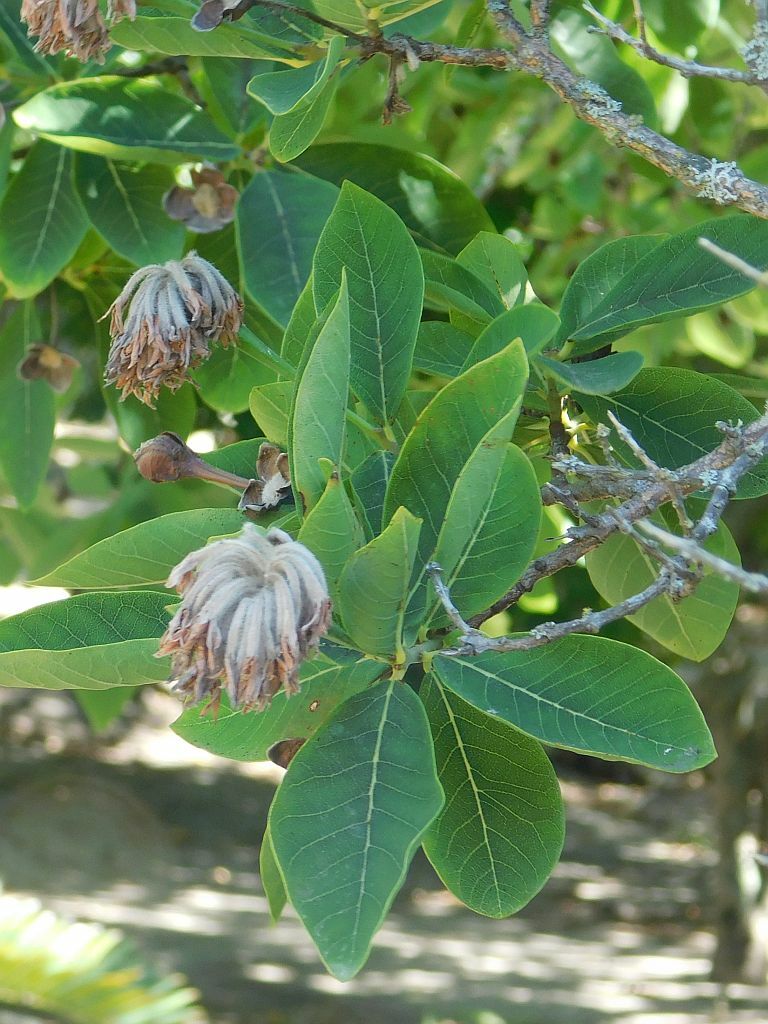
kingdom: Plantae
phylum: Tracheophyta
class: Magnoliopsida
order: Malvales
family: Thymelaeaceae
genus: Dais
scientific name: Dais cotinifolia
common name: Pompon tree
